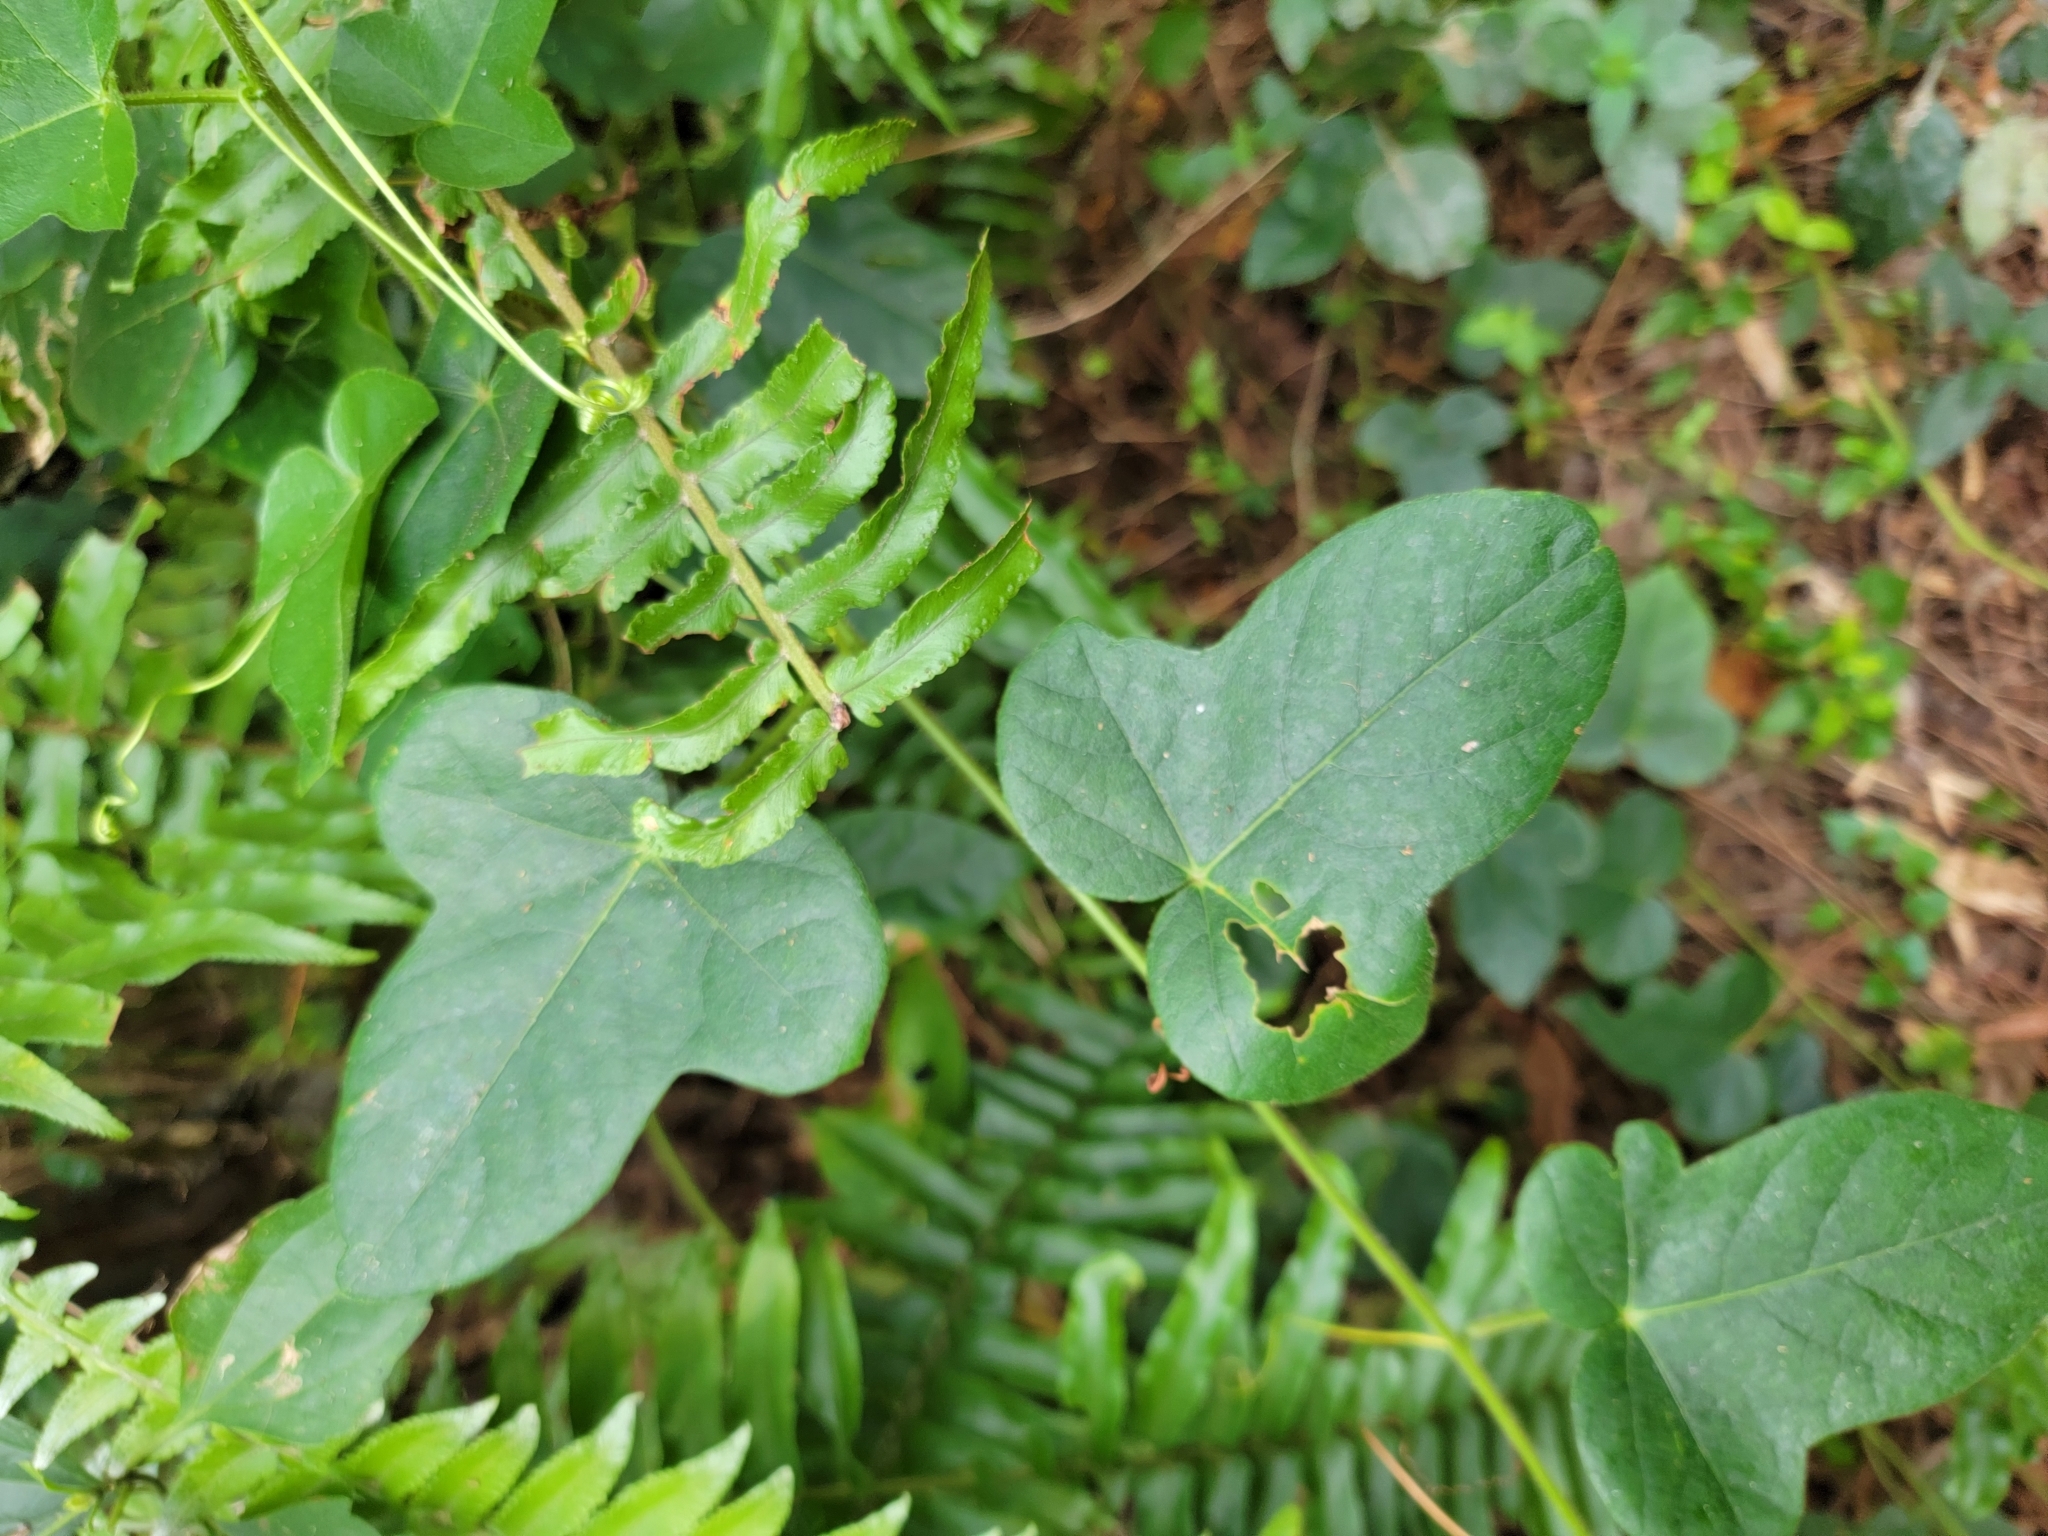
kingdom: Plantae
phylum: Tracheophyta
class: Magnoliopsida
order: Malpighiales
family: Passifloraceae
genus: Passiflora
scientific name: Passiflora ciliata
